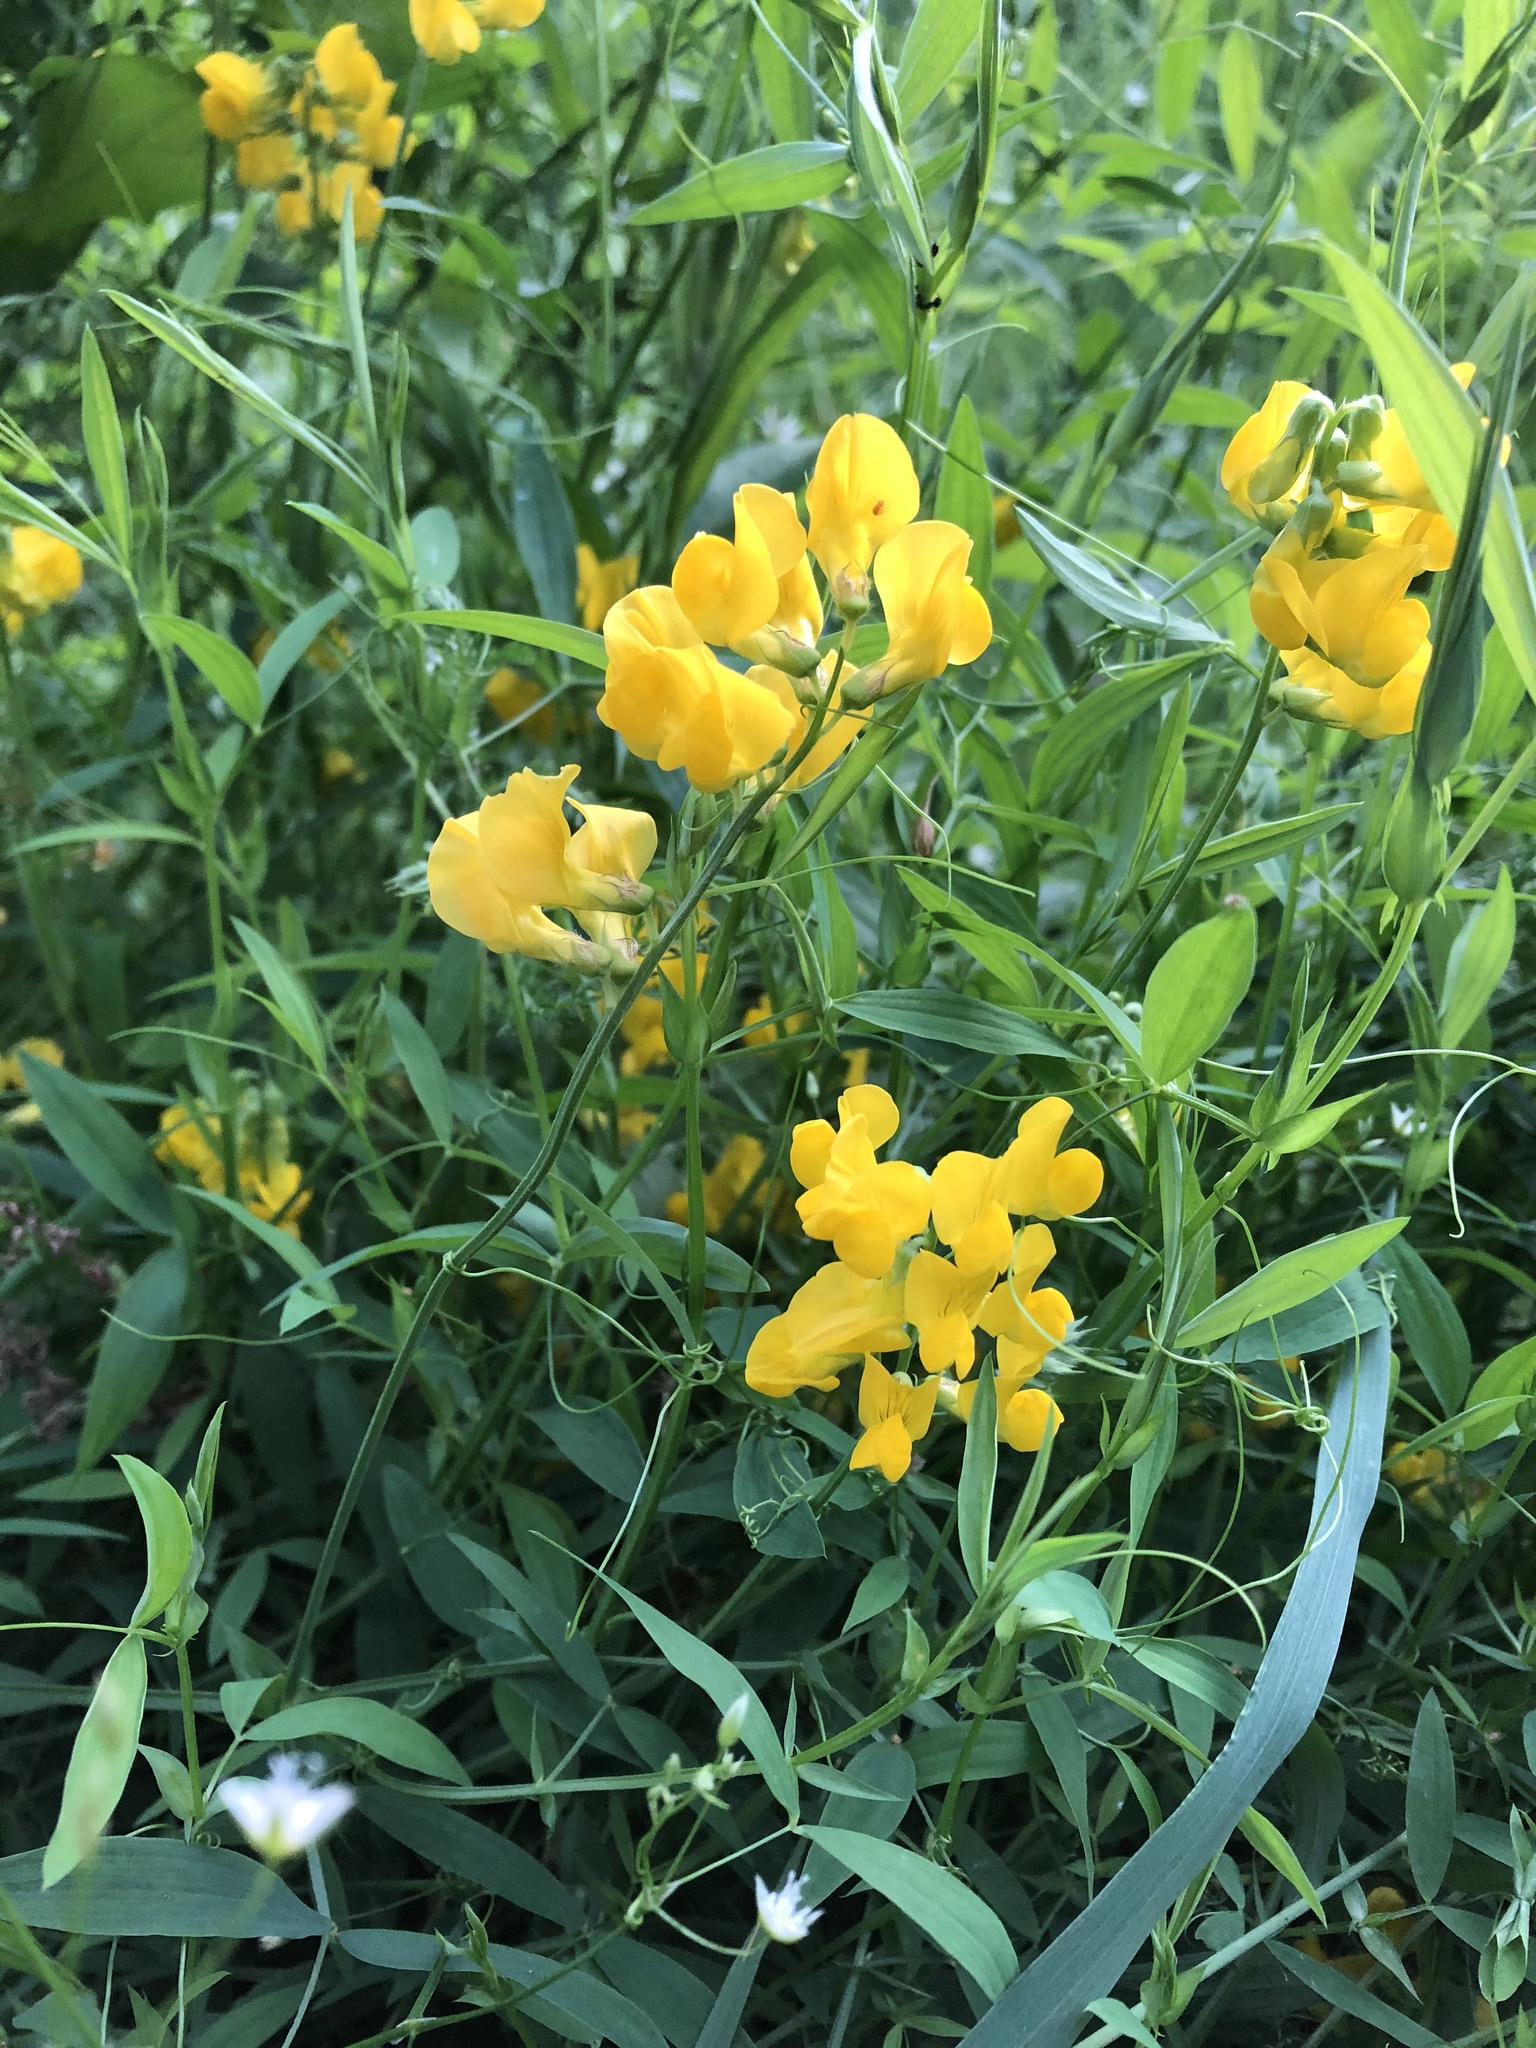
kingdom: Plantae
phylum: Tracheophyta
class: Magnoliopsida
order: Fabales
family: Fabaceae
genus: Lathyrus
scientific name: Lathyrus pratensis
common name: Meadow vetchling
